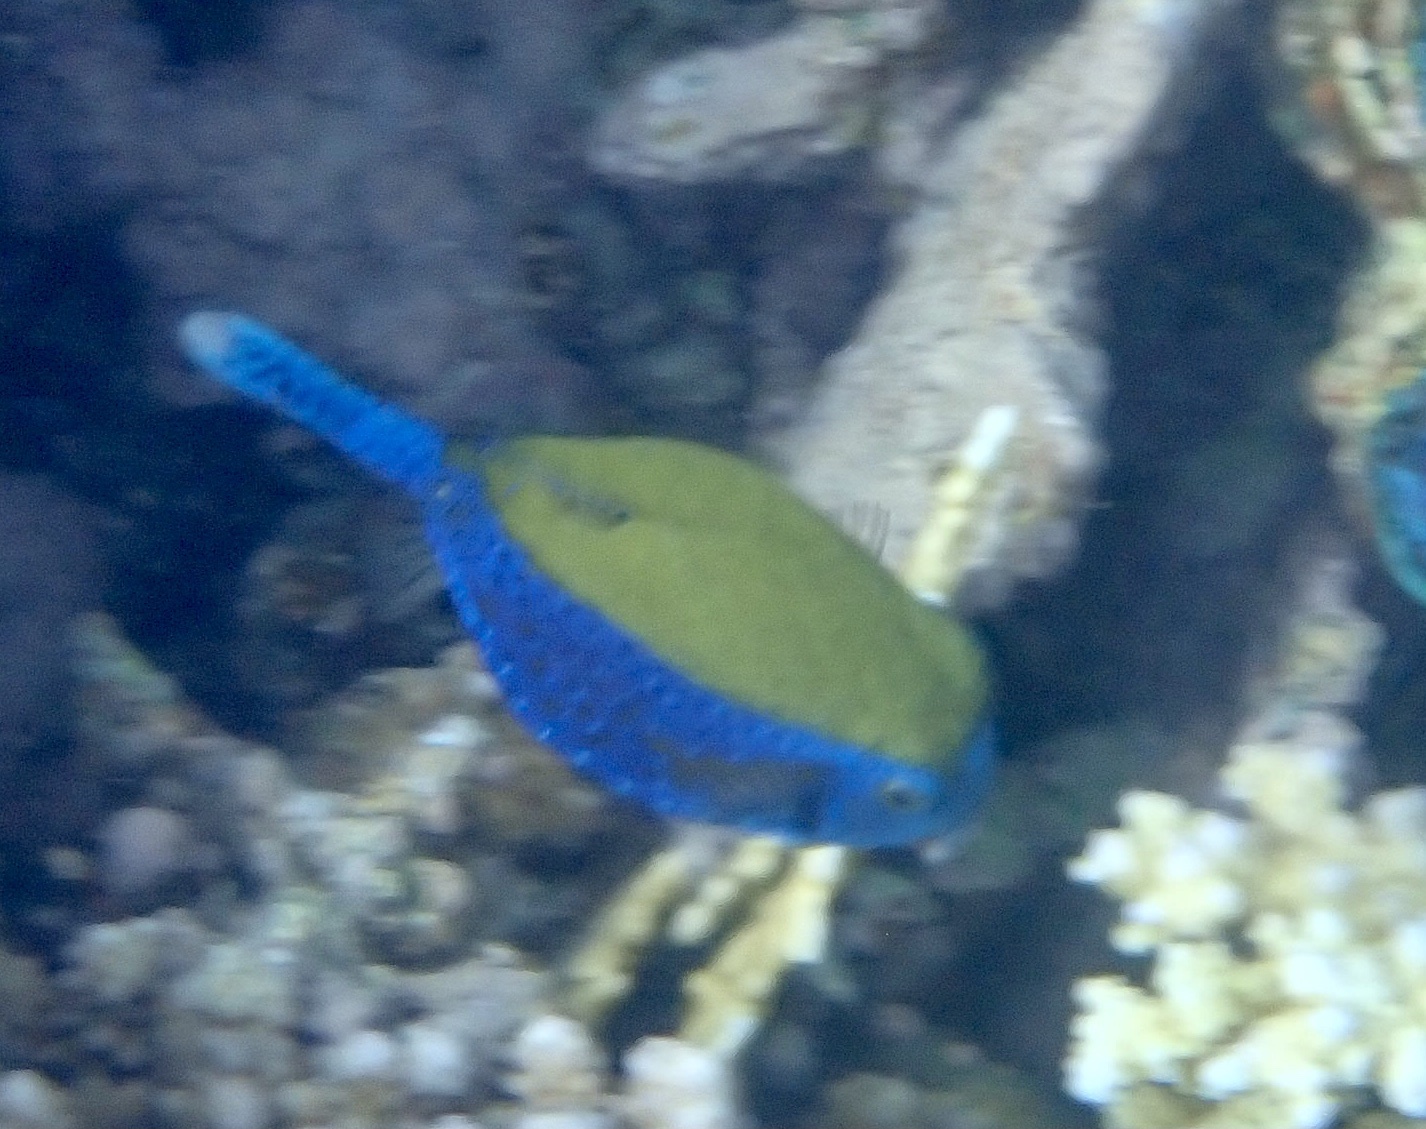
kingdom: Animalia
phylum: Chordata
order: Tetraodontiformes
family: Ostraciidae
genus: Ostracion
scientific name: Ostracion cyanurus
